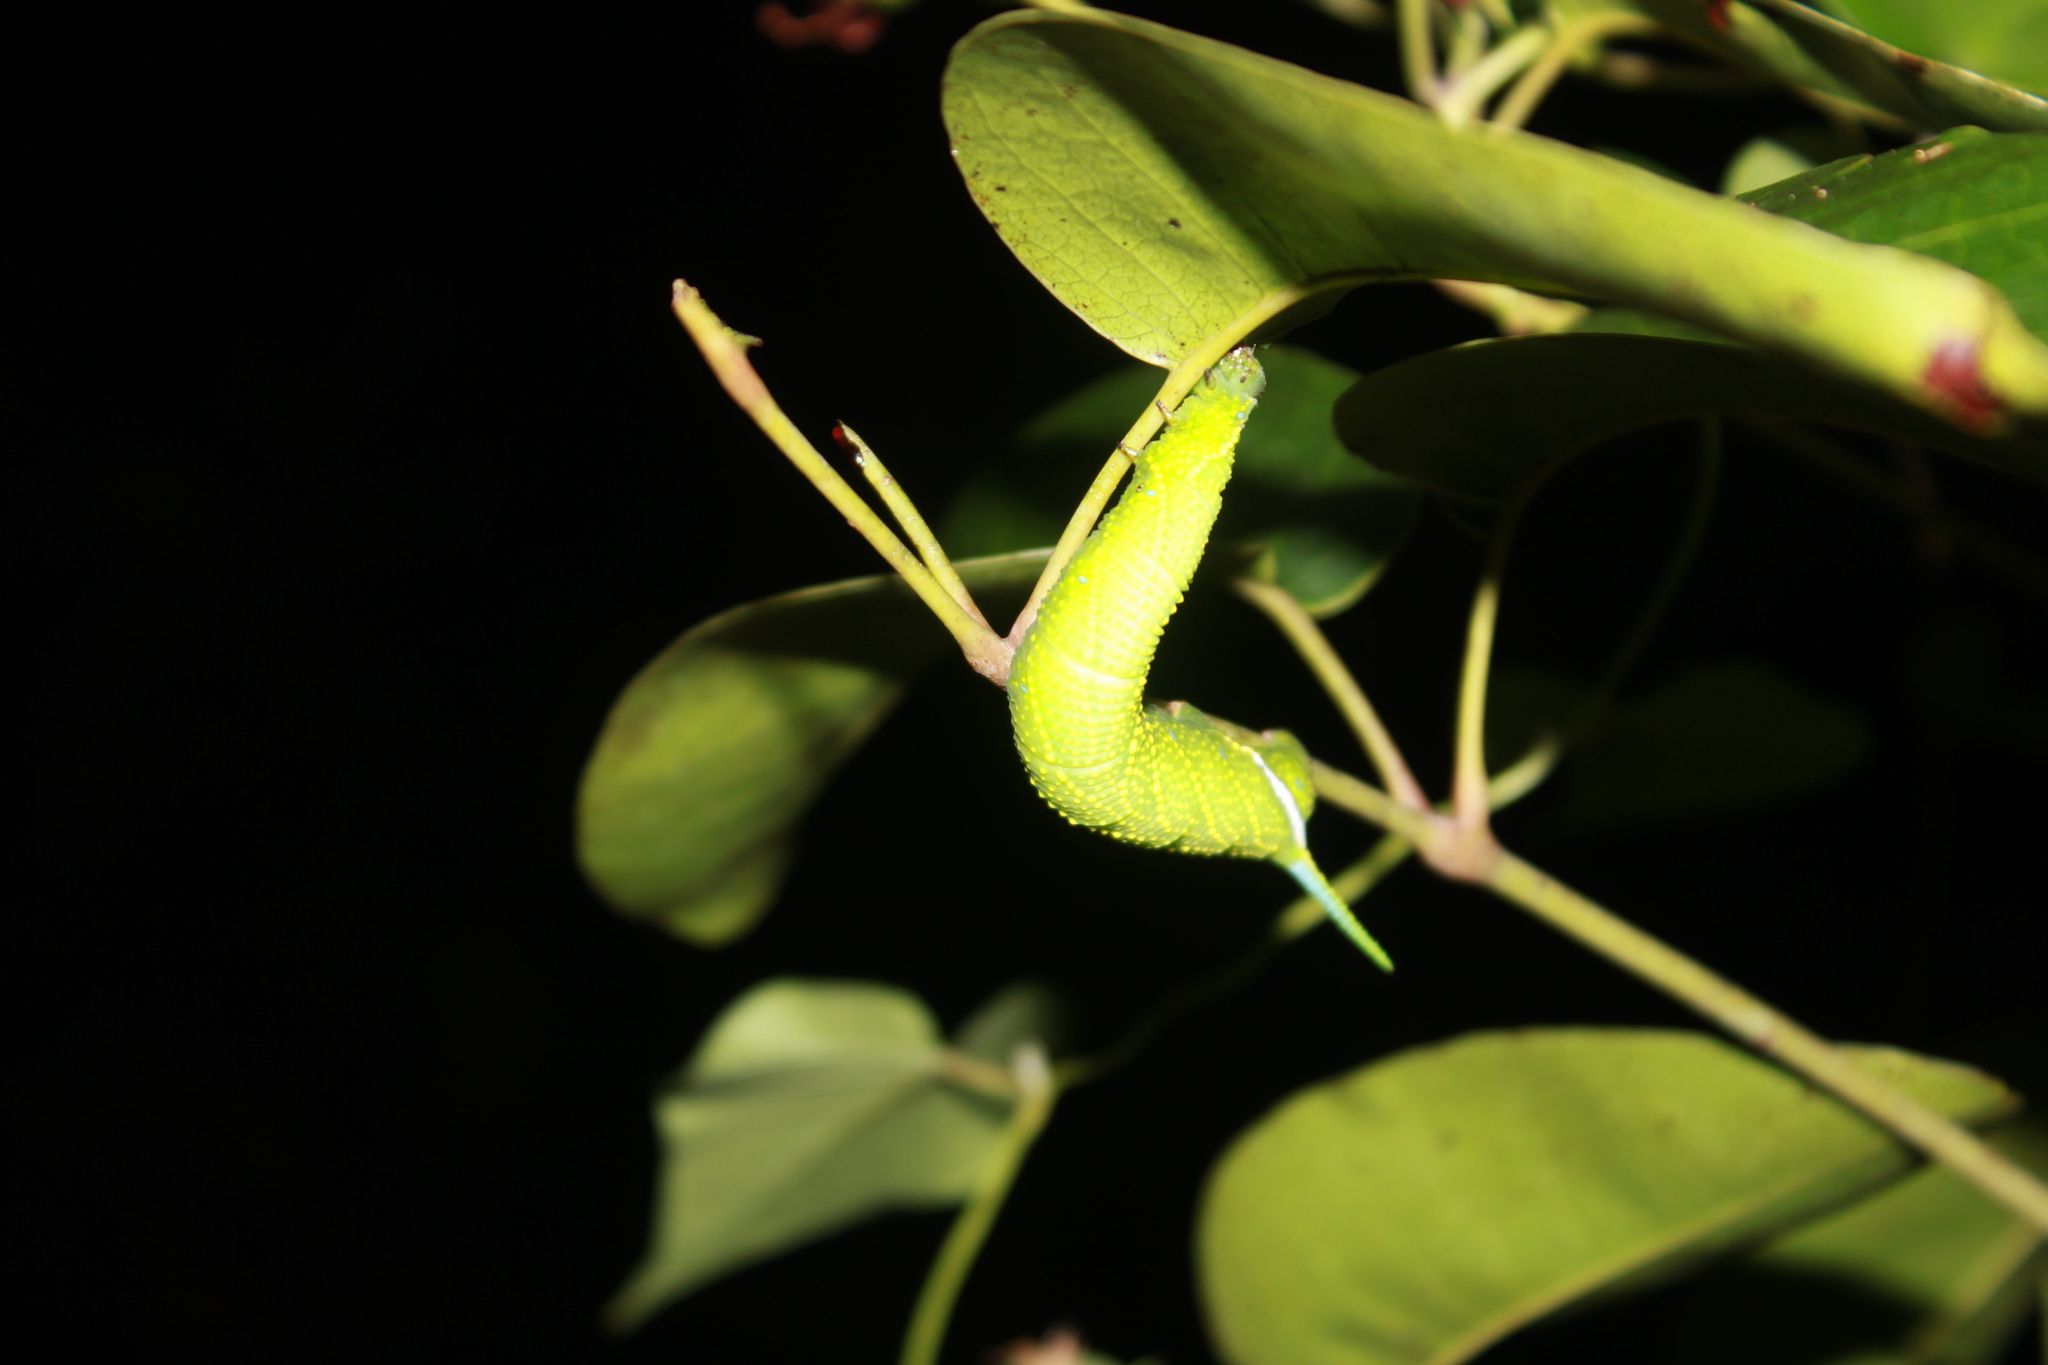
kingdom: Animalia
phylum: Arthropoda
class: Insecta
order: Lepidoptera
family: Sphingidae
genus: Protambulyx
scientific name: Protambulyx strigilis
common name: Streaked sphinx
